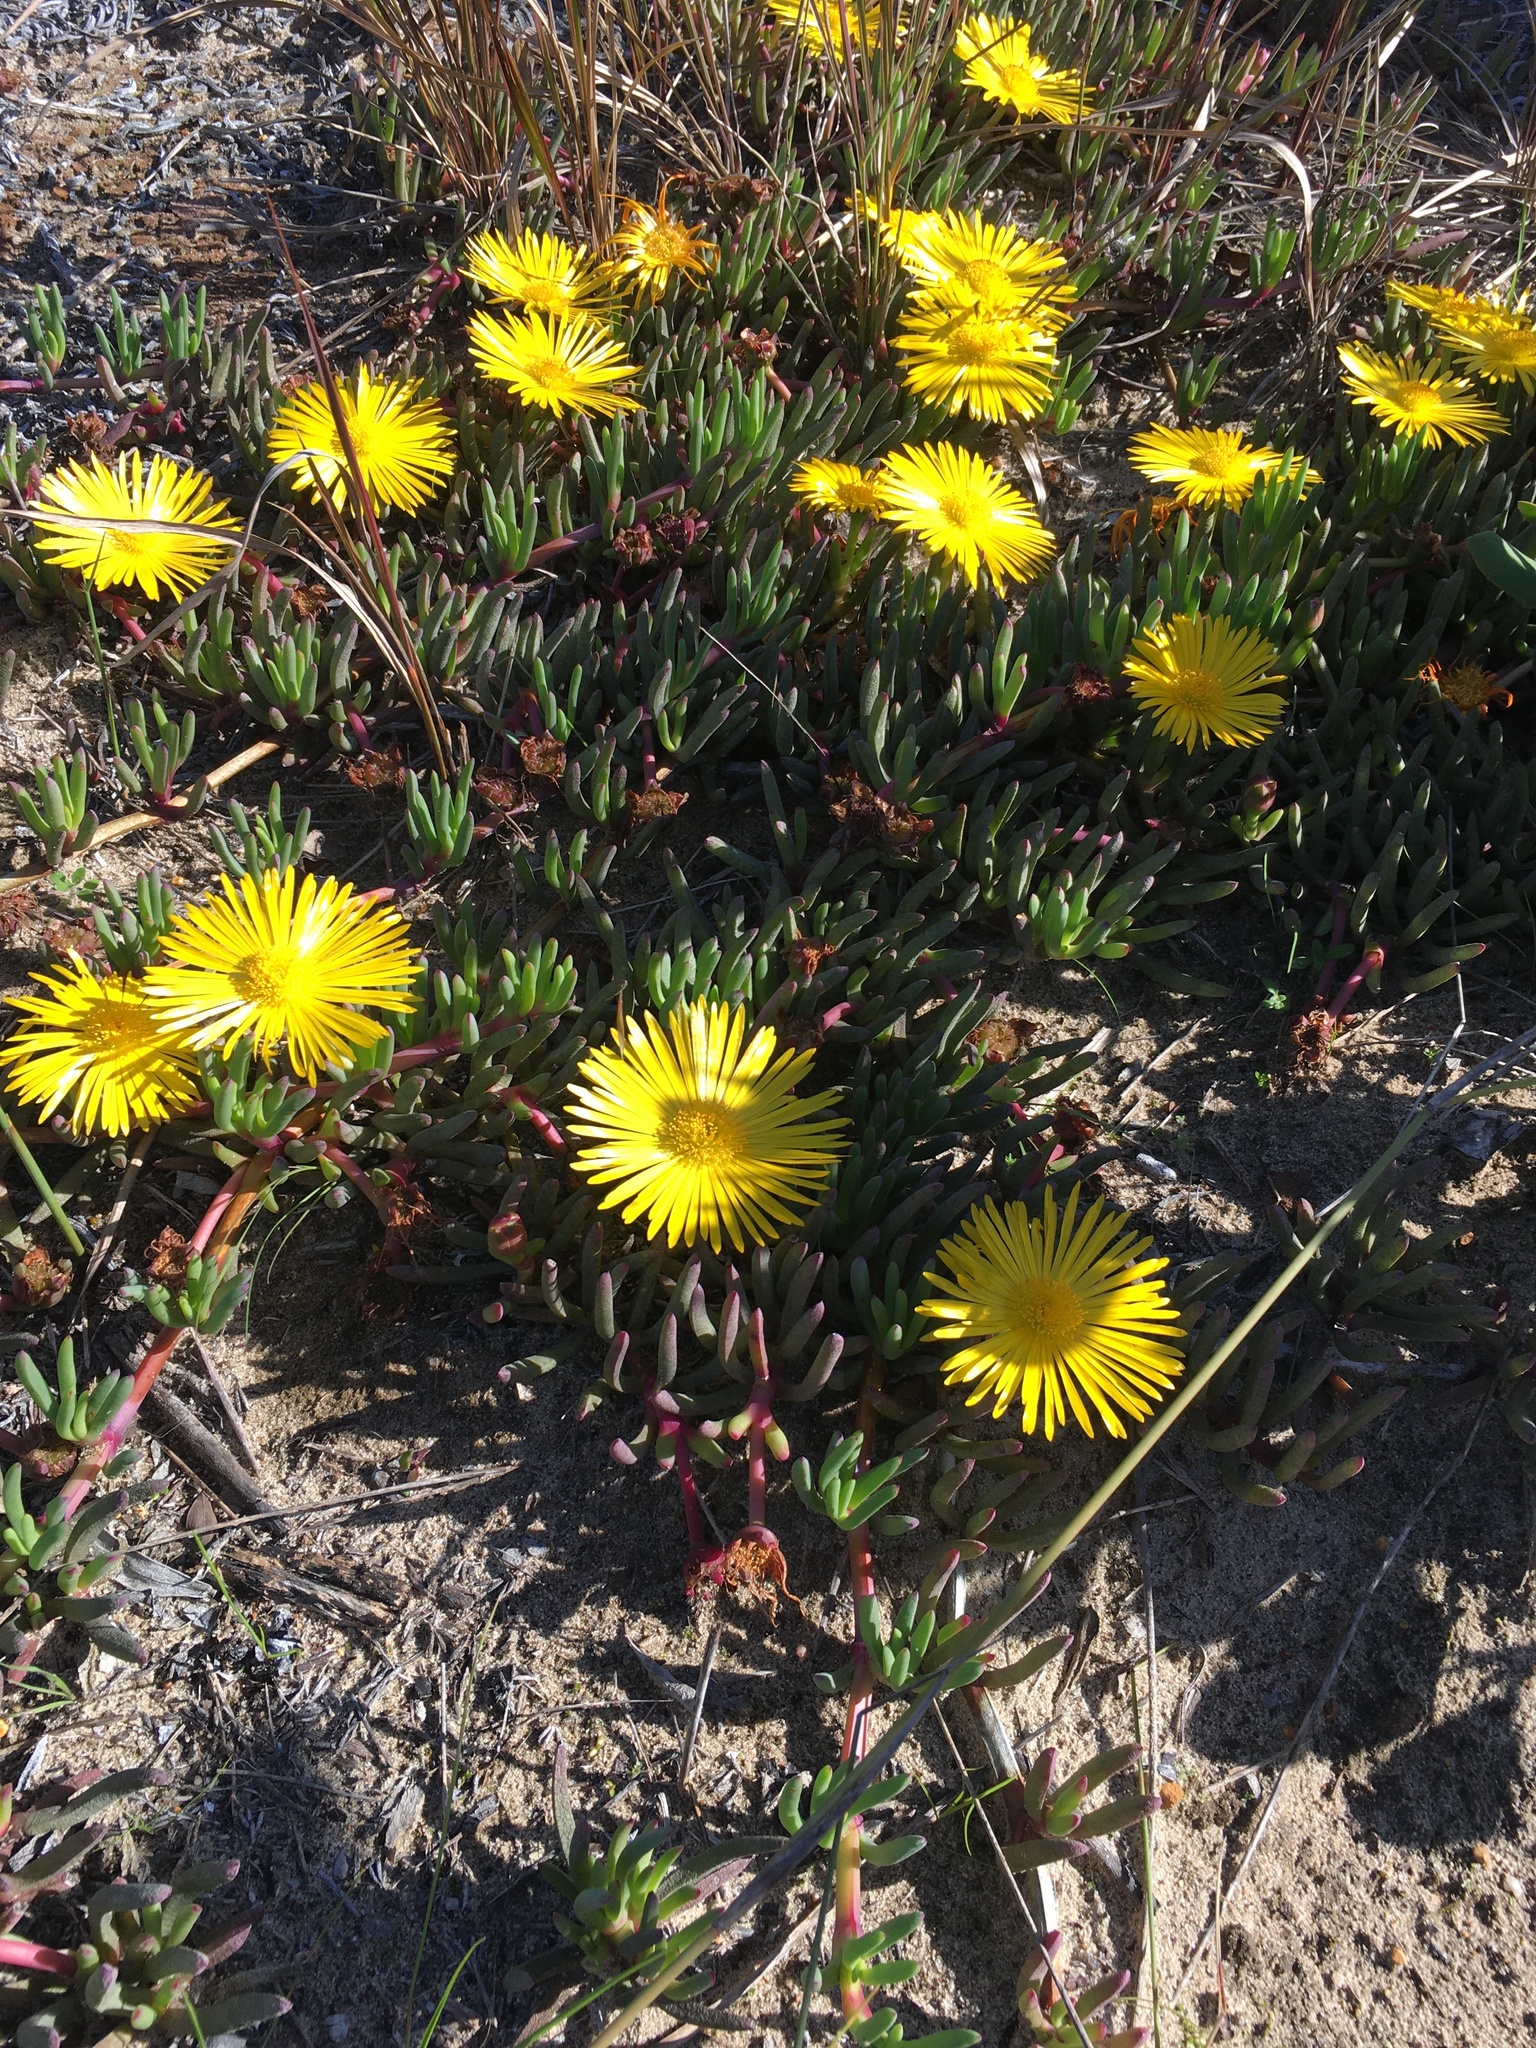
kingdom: Plantae
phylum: Tracheophyta
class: Magnoliopsida
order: Caryophyllales
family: Aizoaceae
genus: Jordaaniella
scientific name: Jordaaniella dubia
